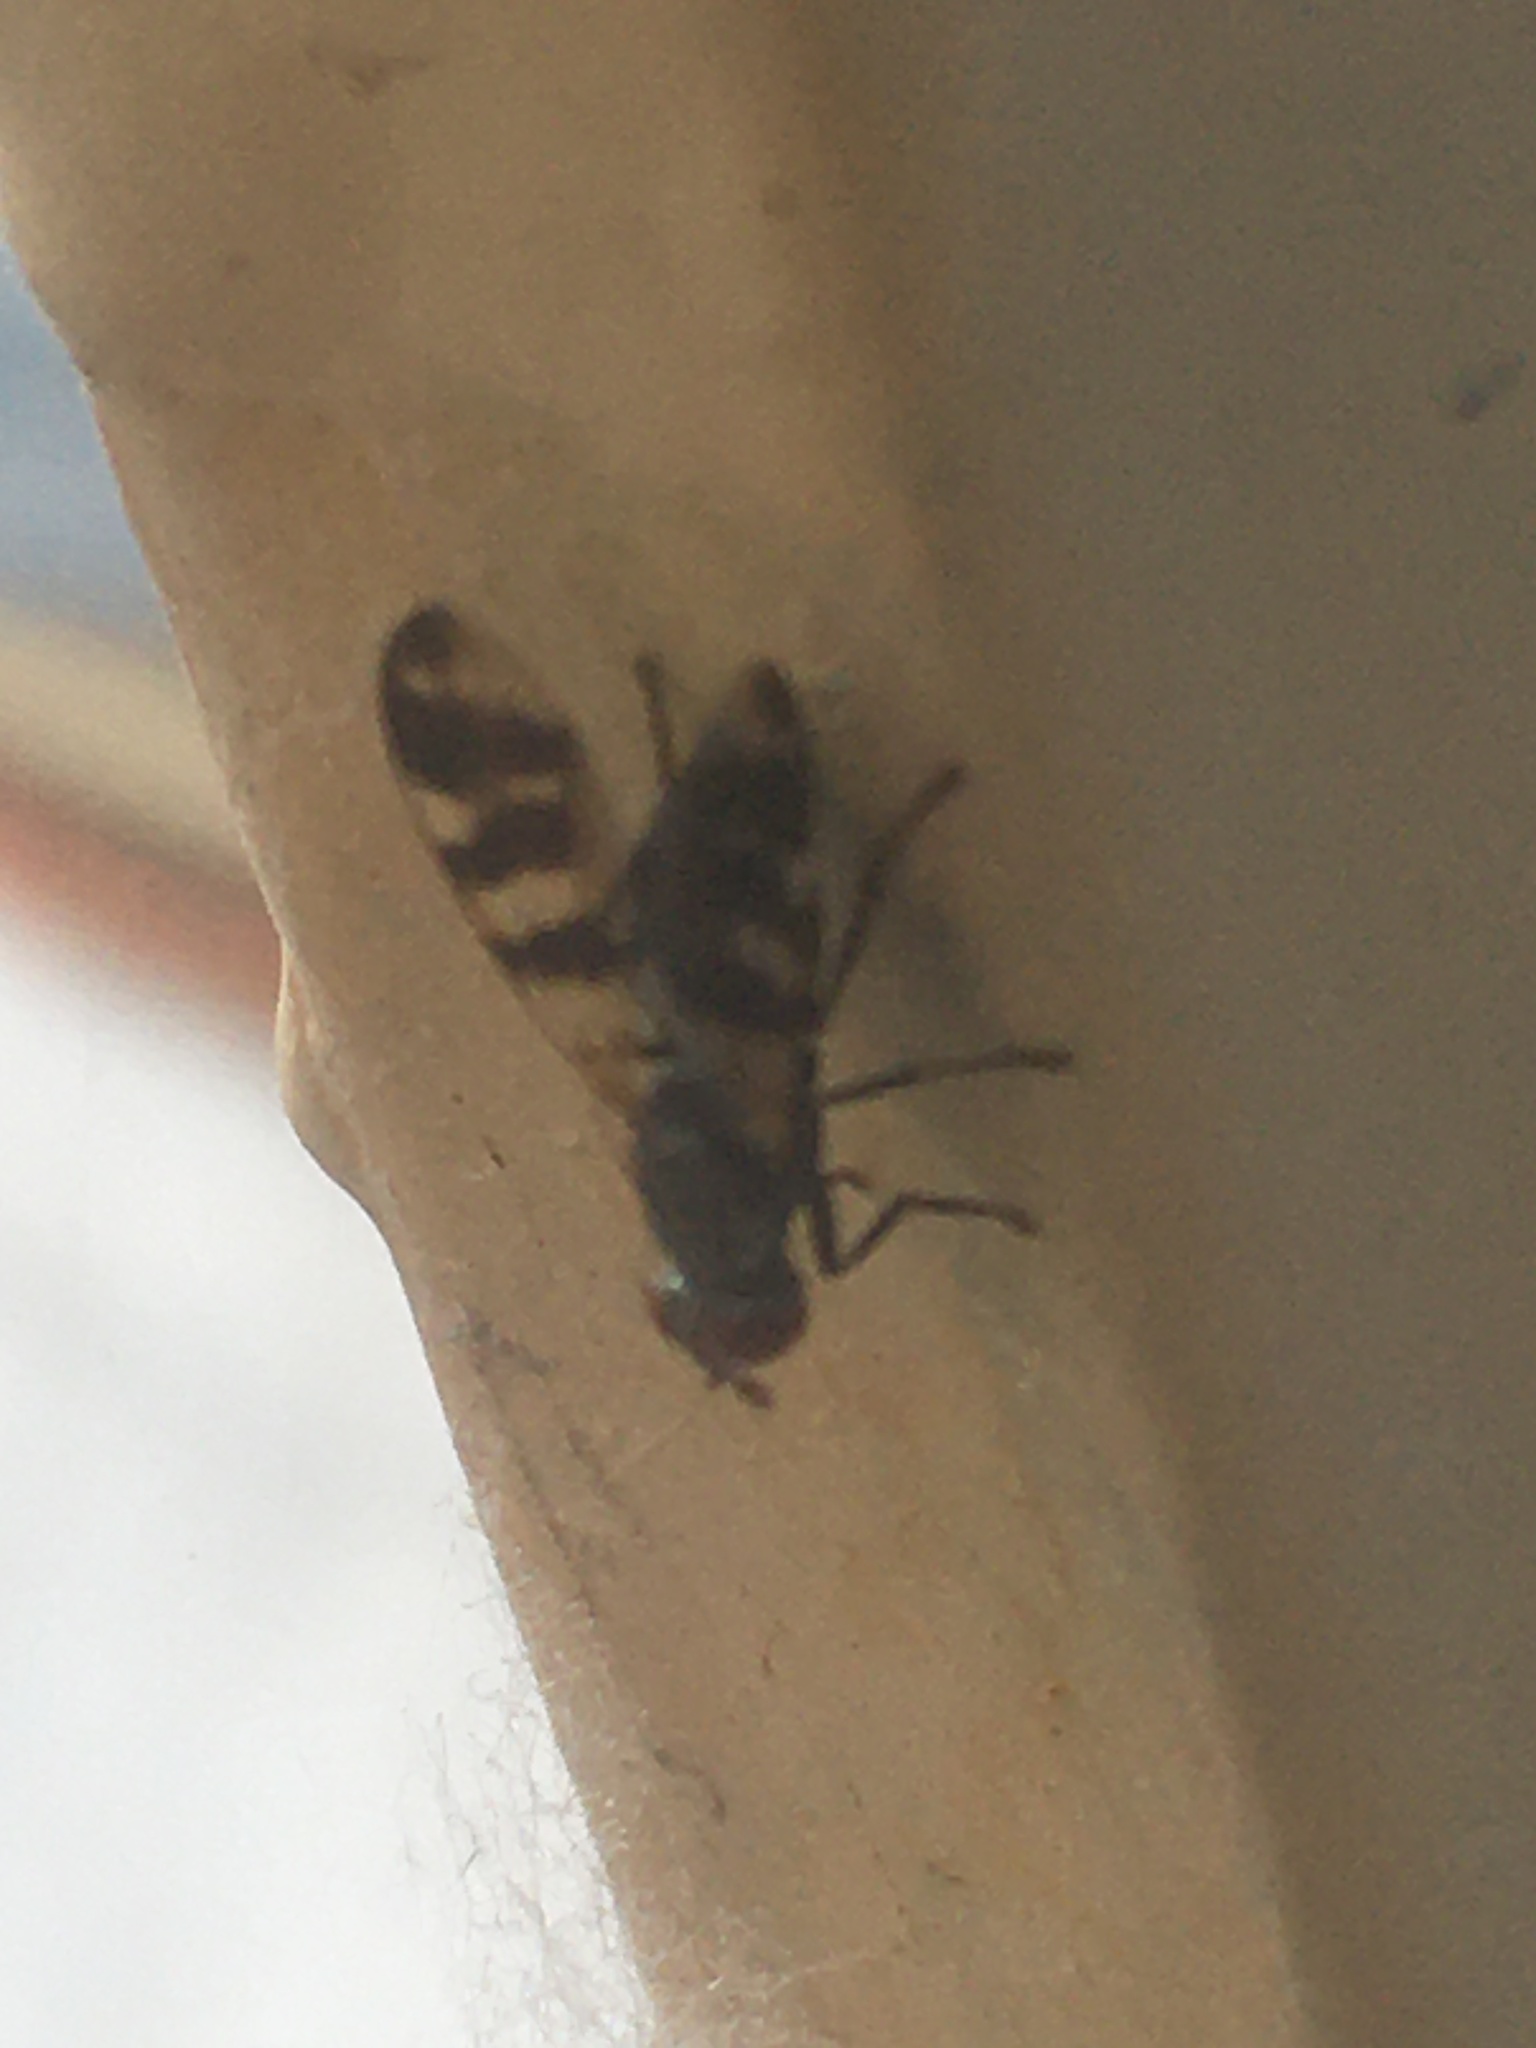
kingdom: Animalia
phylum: Arthropoda
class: Insecta
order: Diptera
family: Ulidiidae
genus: Ceroxys
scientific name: Ceroxys urticae
